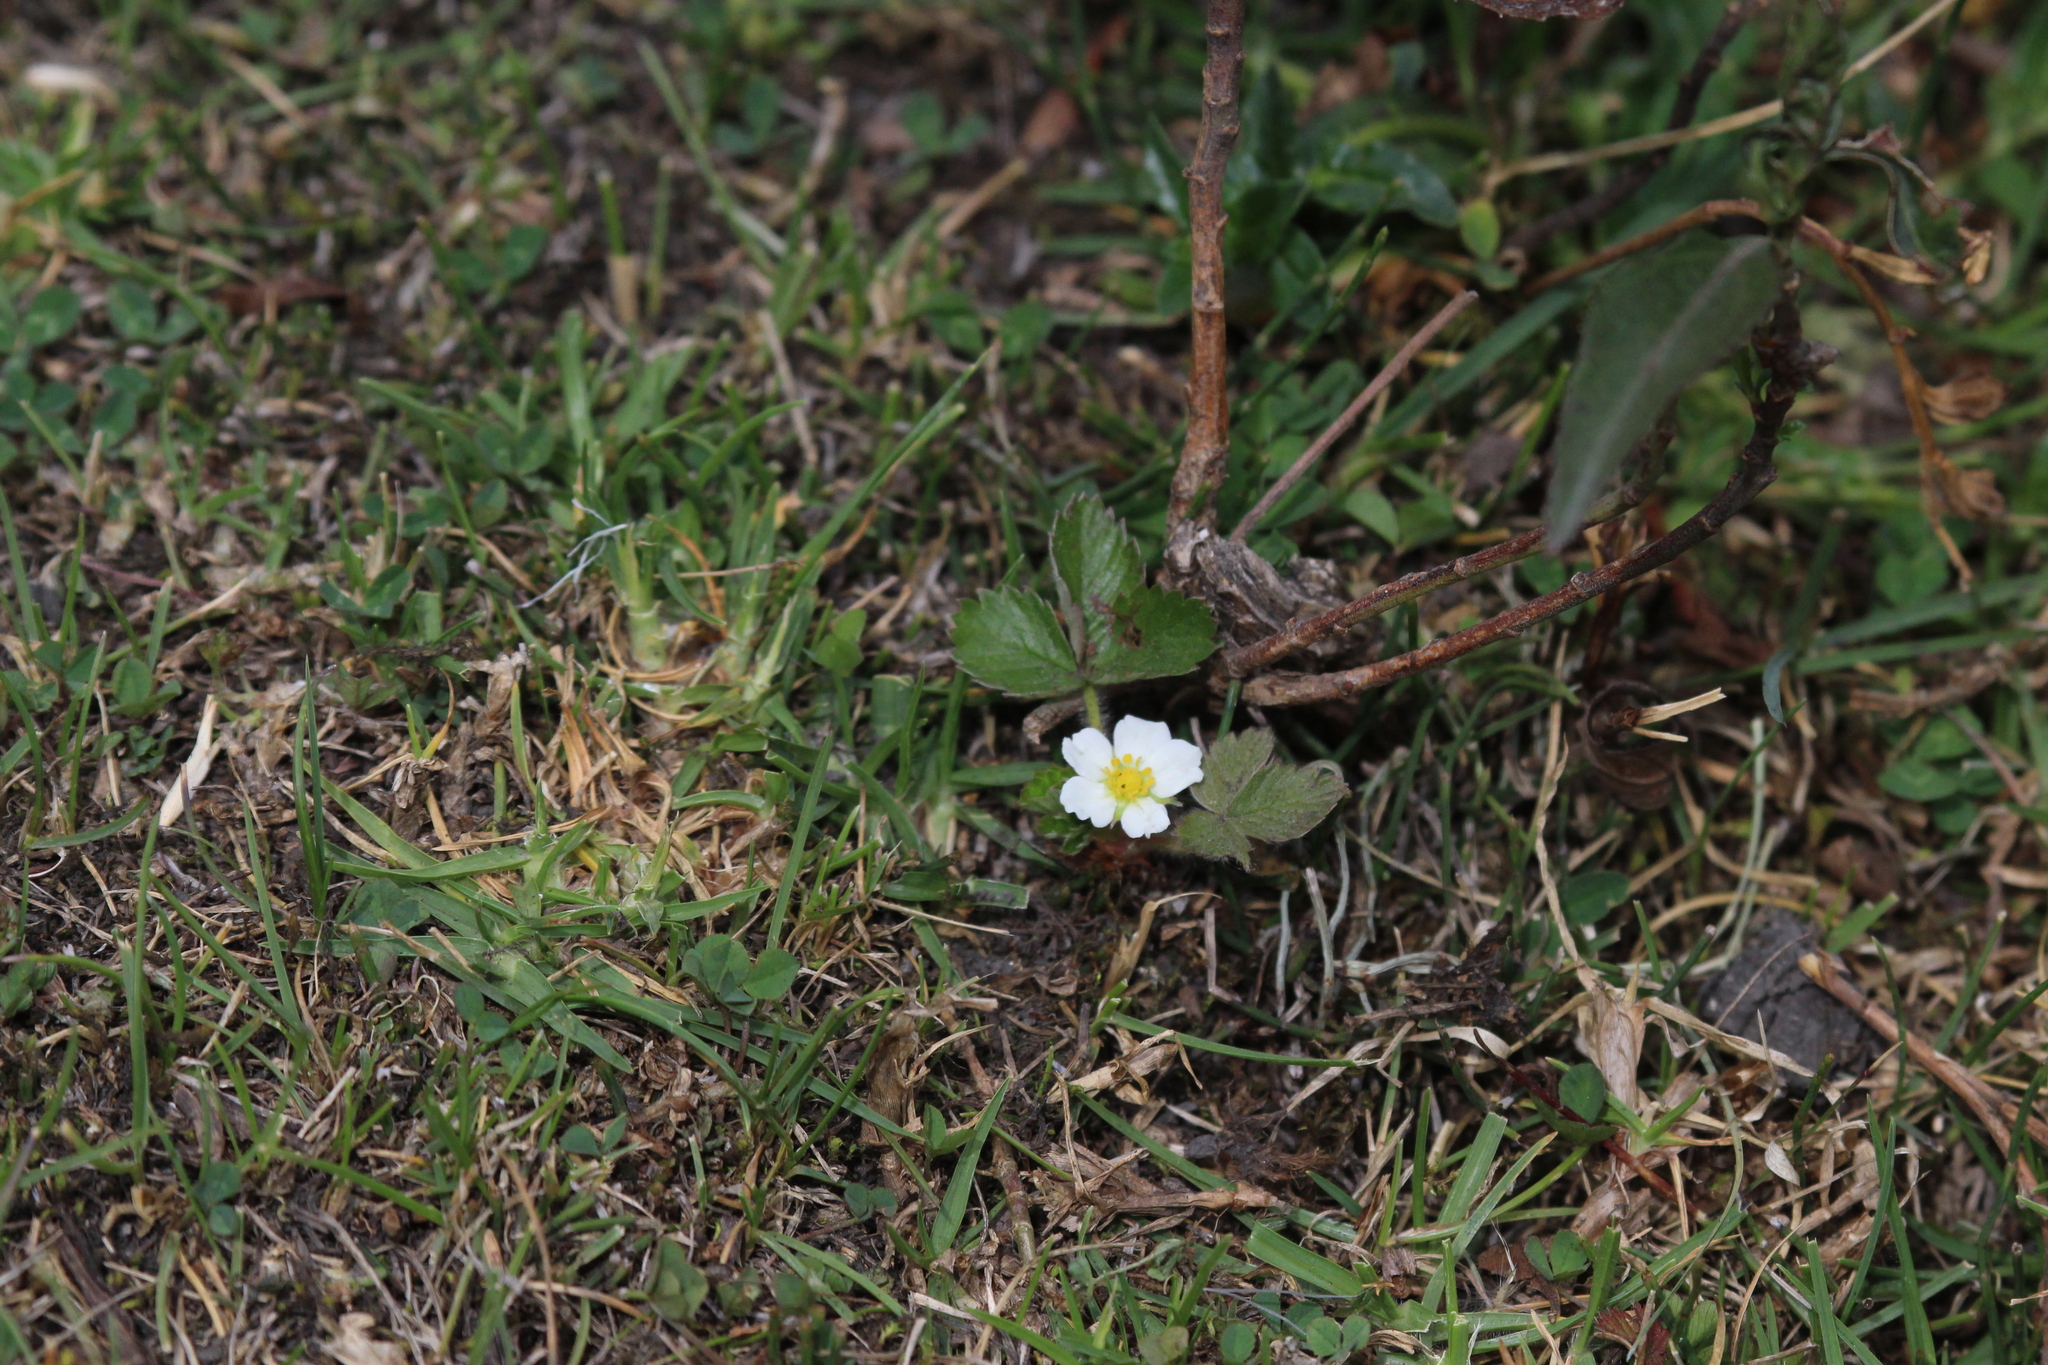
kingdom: Plantae
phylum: Tracheophyta
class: Magnoliopsida
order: Rosales
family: Rosaceae
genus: Fragaria
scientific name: Fragaria vesca
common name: Wild strawberry
